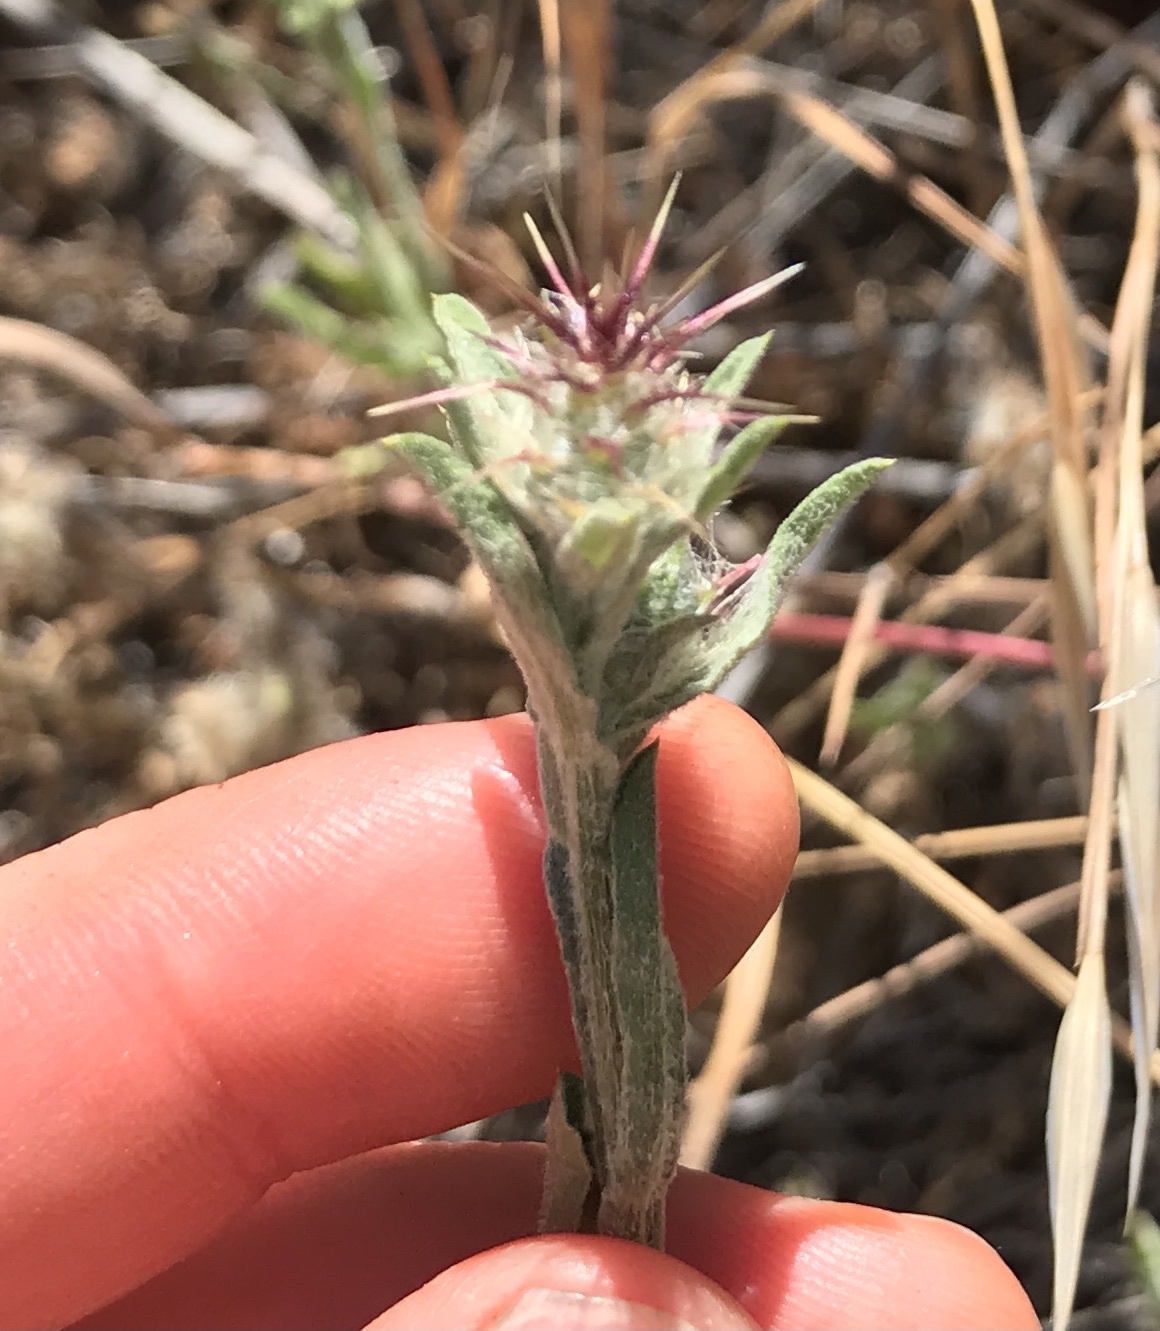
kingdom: Plantae
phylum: Tracheophyta
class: Magnoliopsida
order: Asterales
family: Asteraceae
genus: Centaurea
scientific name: Centaurea melitensis
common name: Maltese star-thistle
